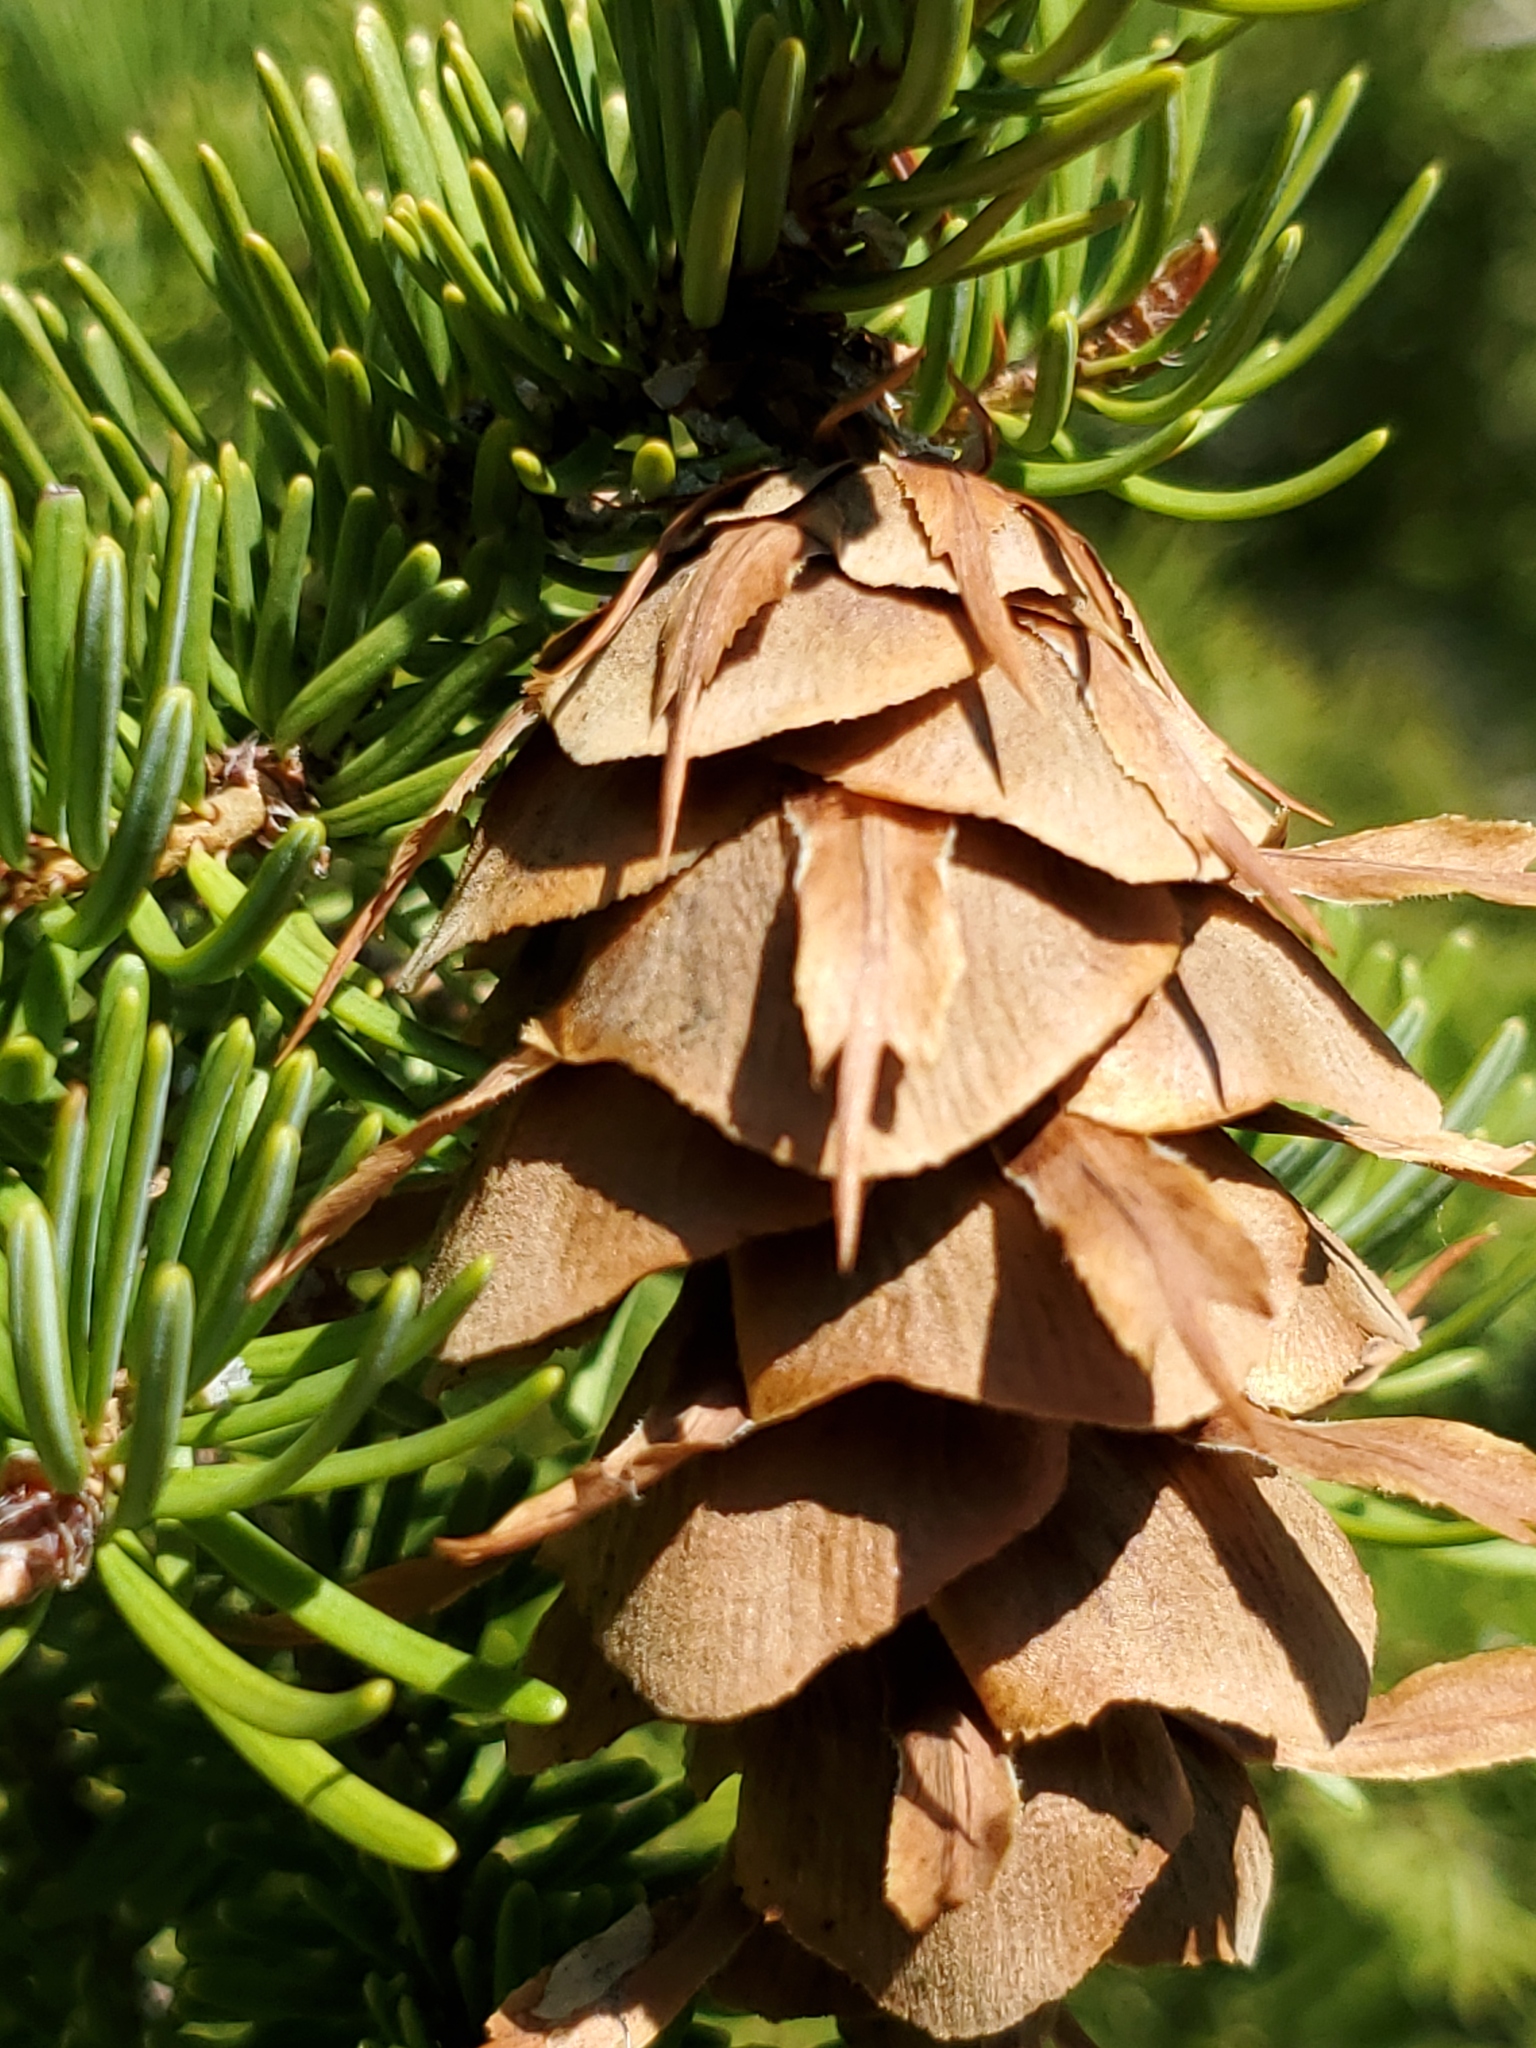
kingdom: Plantae
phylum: Tracheophyta
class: Pinopsida
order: Pinales
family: Pinaceae
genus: Pseudotsuga
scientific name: Pseudotsuga menziesii
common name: Douglas fir
